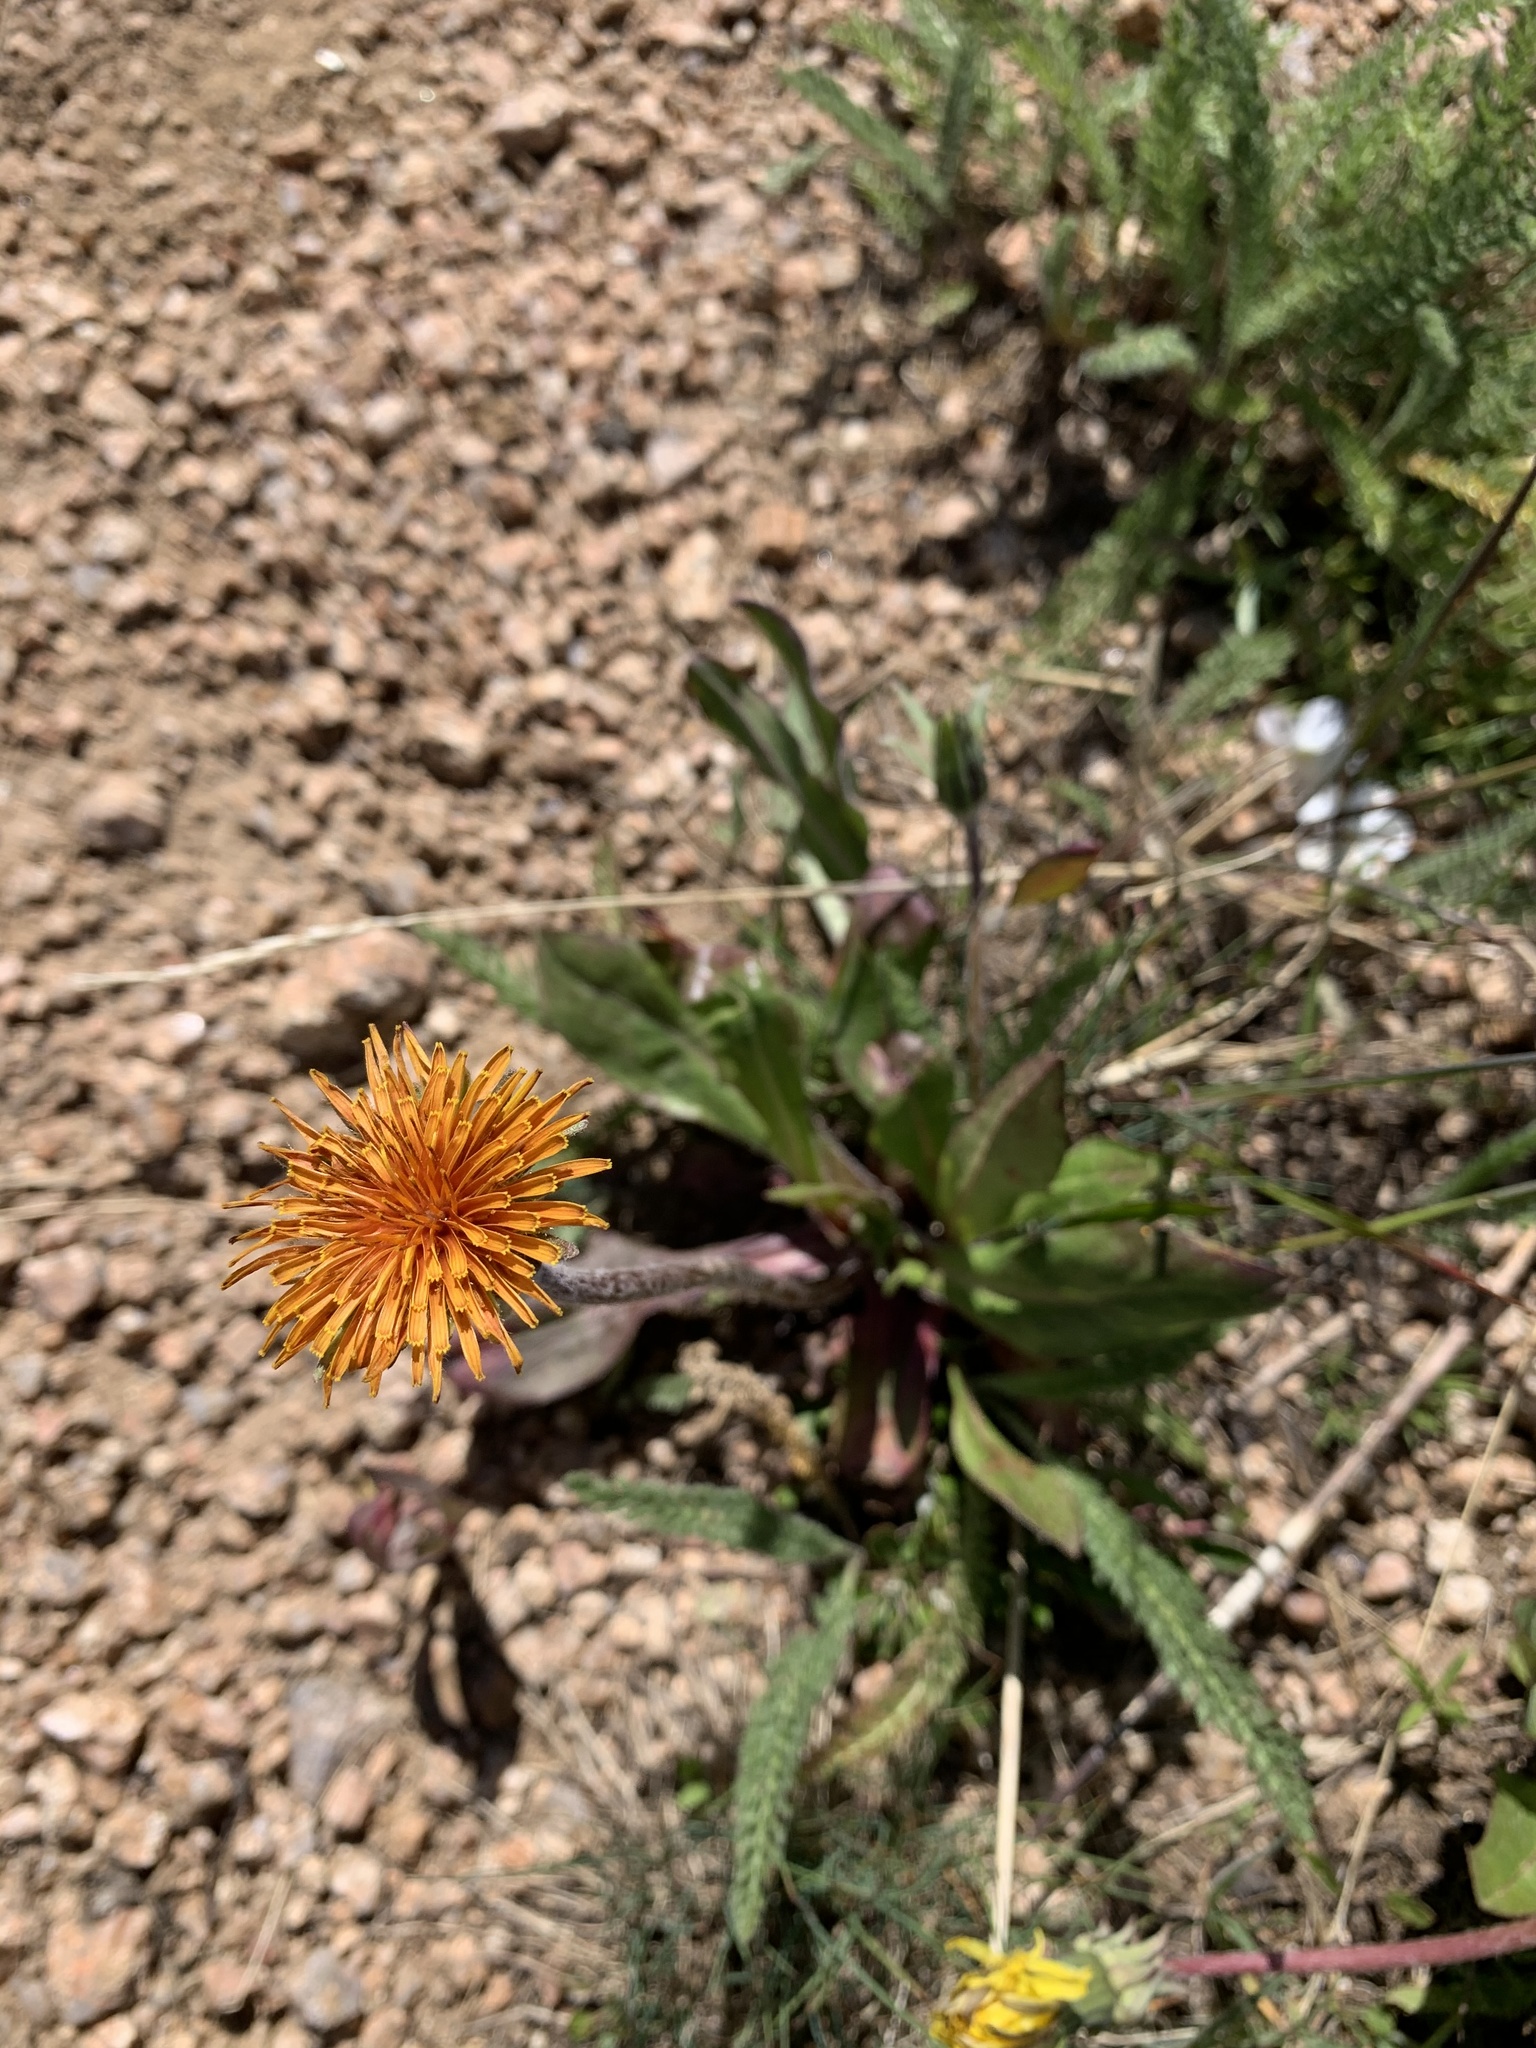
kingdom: Plantae
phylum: Tracheophyta
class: Magnoliopsida
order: Asterales
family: Asteraceae
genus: Agoseris
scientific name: Agoseris aurantiaca
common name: Mountain agoseris
